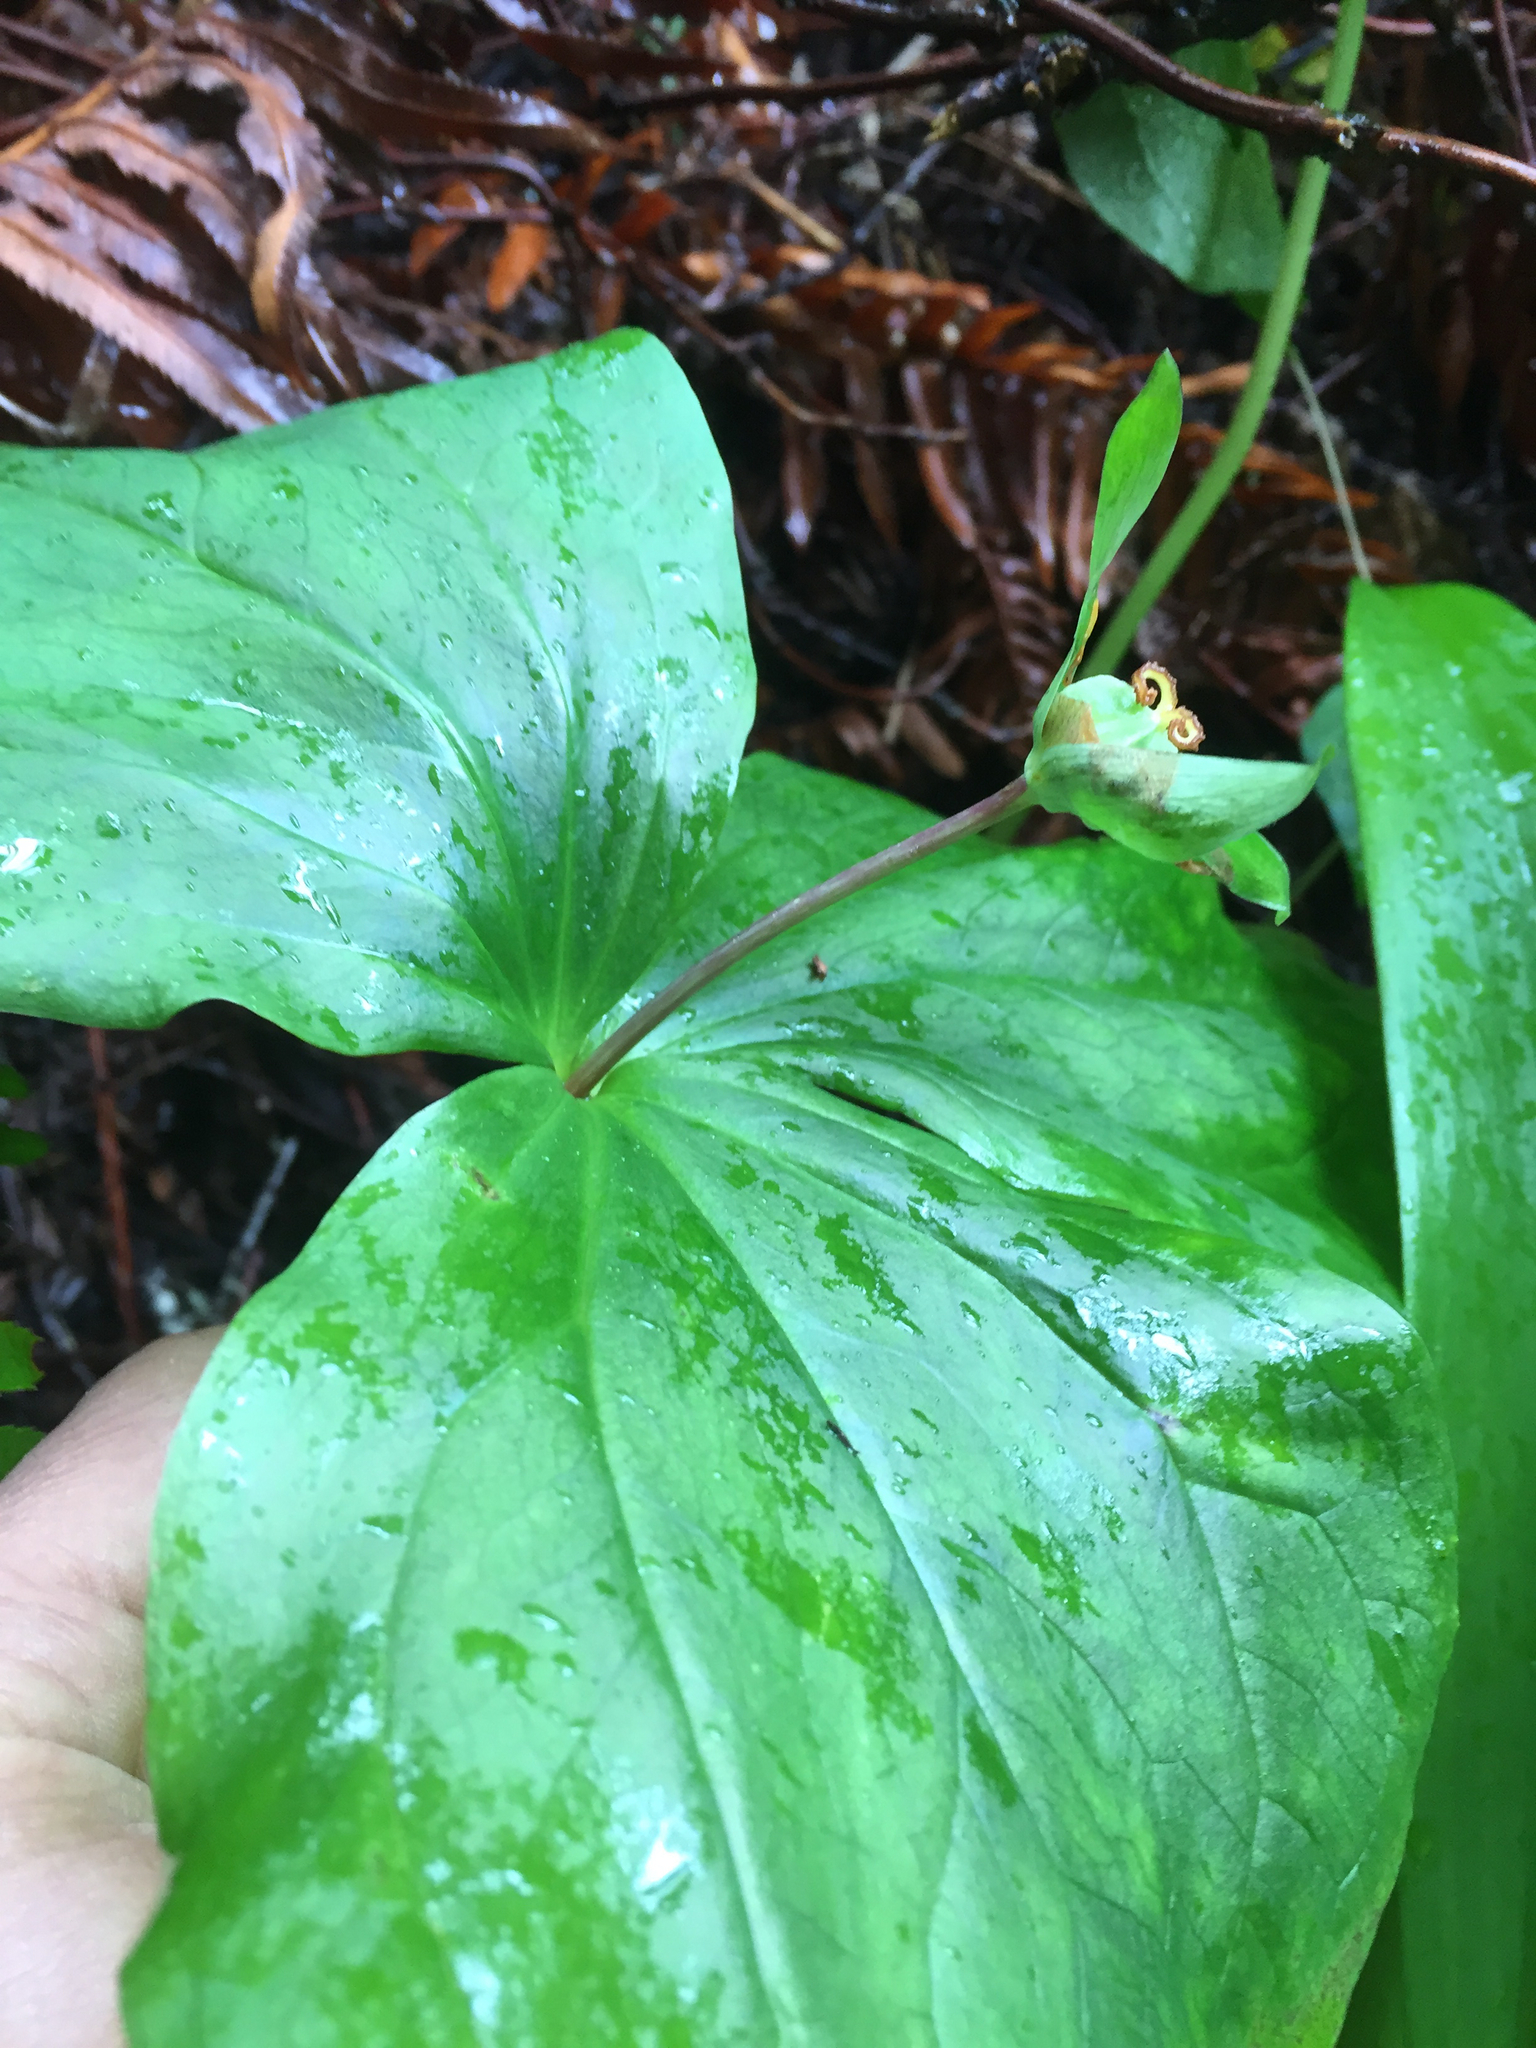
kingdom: Plantae
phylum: Tracheophyta
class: Liliopsida
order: Liliales
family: Melanthiaceae
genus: Trillium
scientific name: Trillium ovatum
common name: Pacific trillium
